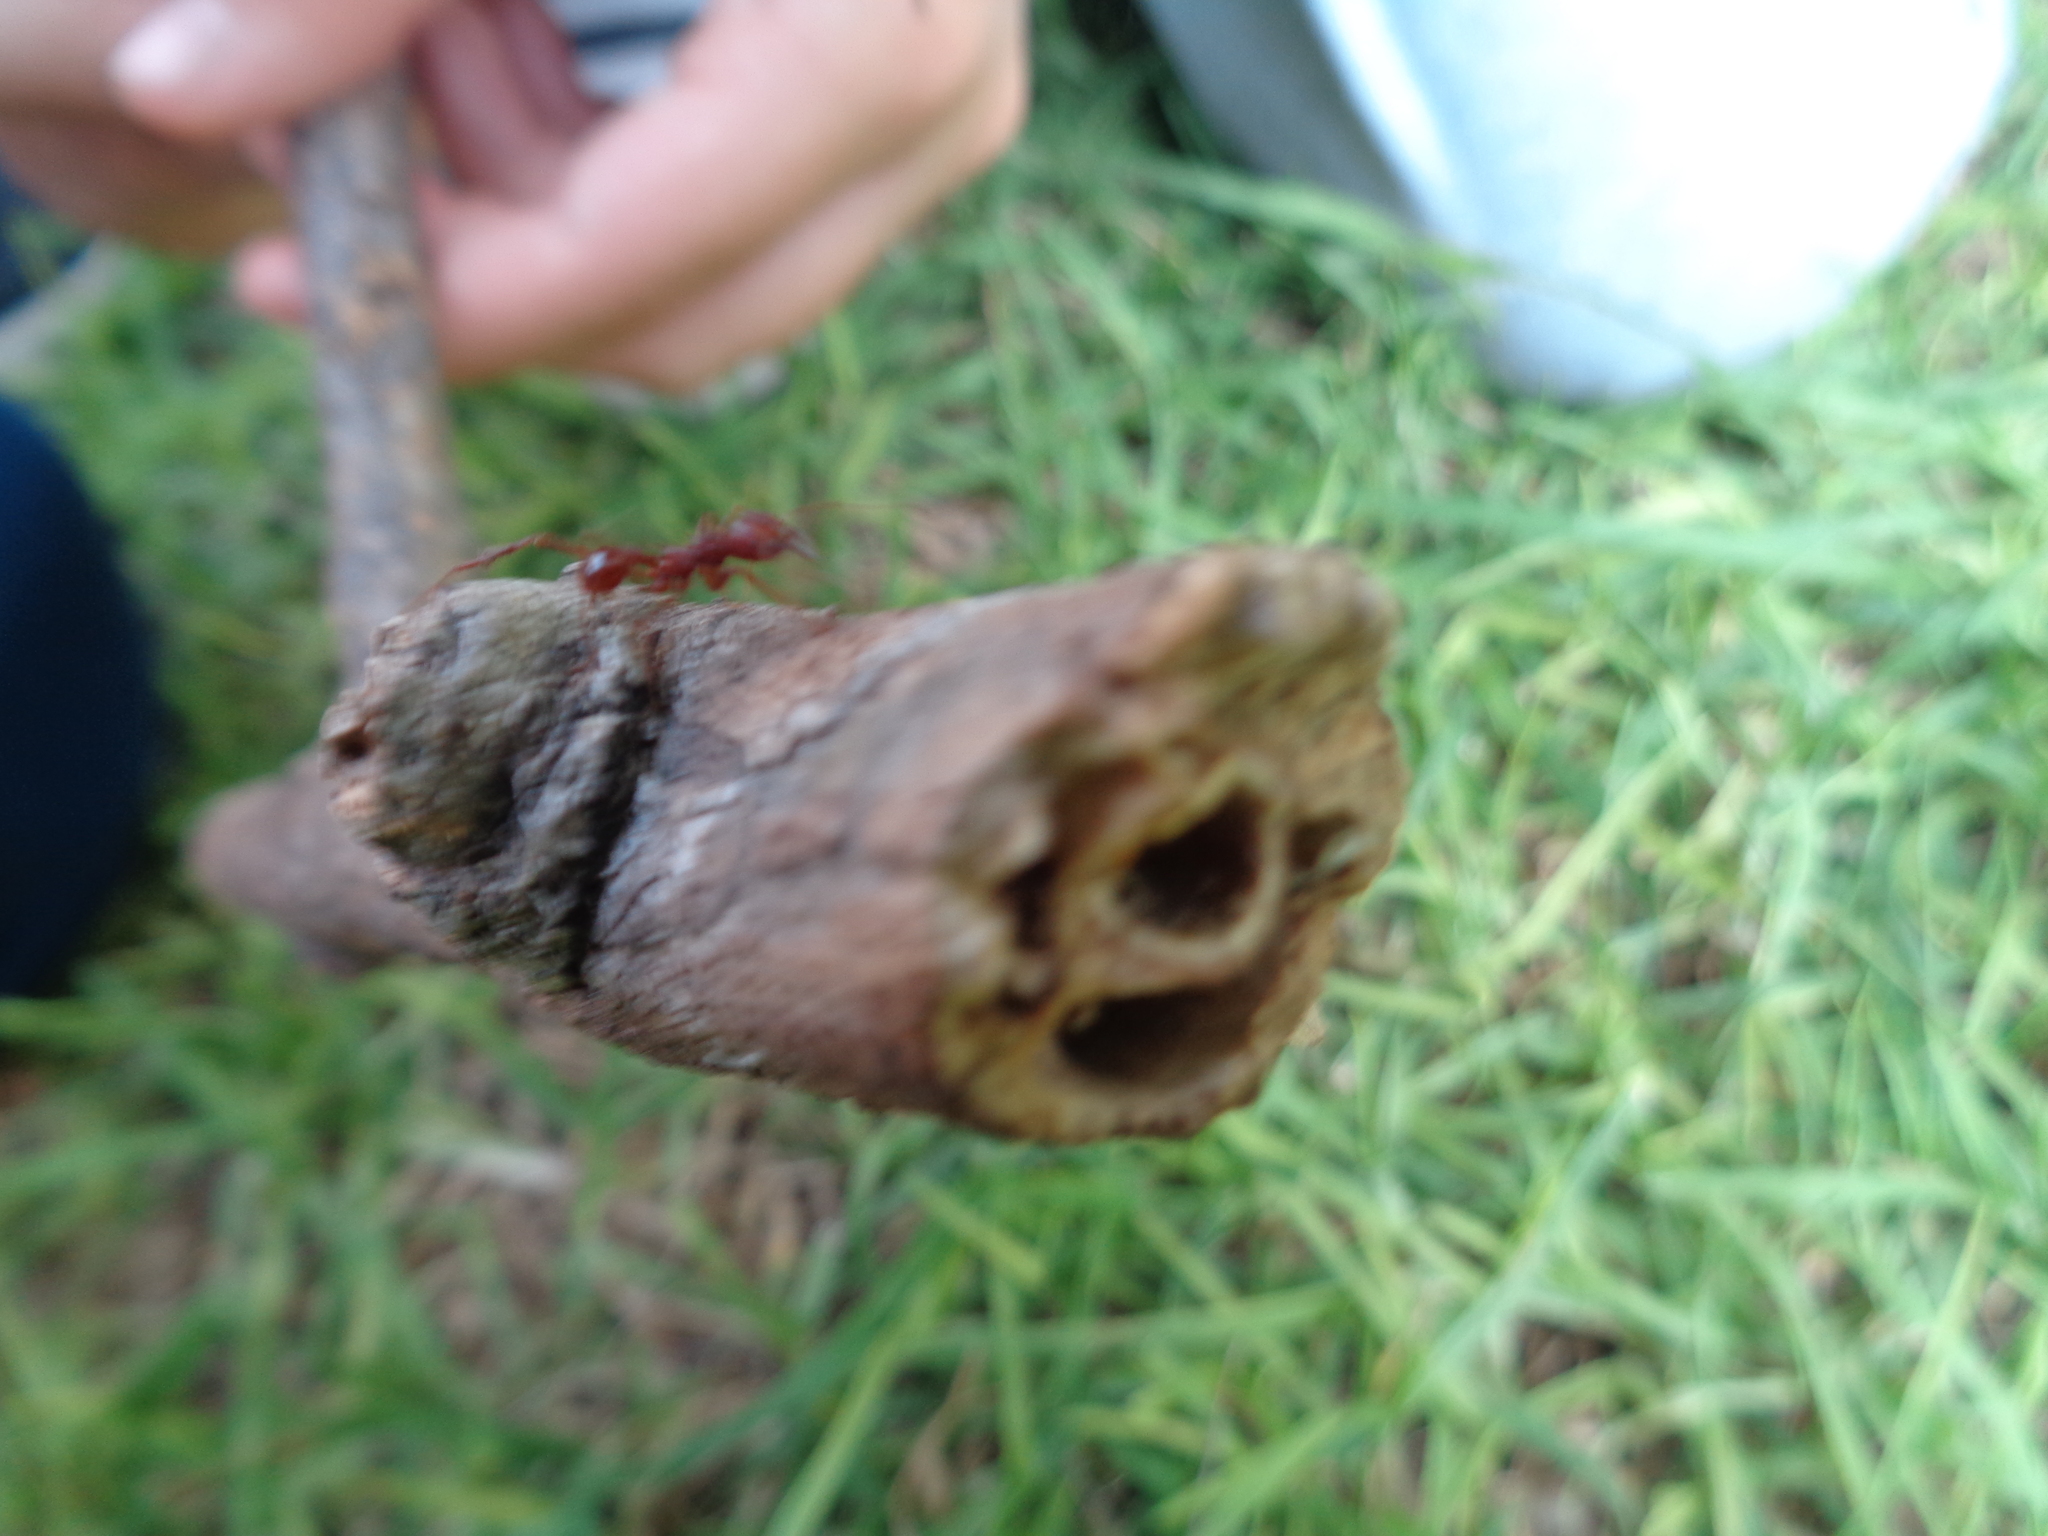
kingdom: Animalia
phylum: Arthropoda
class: Insecta
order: Hymenoptera
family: Formicidae
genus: Atta
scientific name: Atta mexicana
